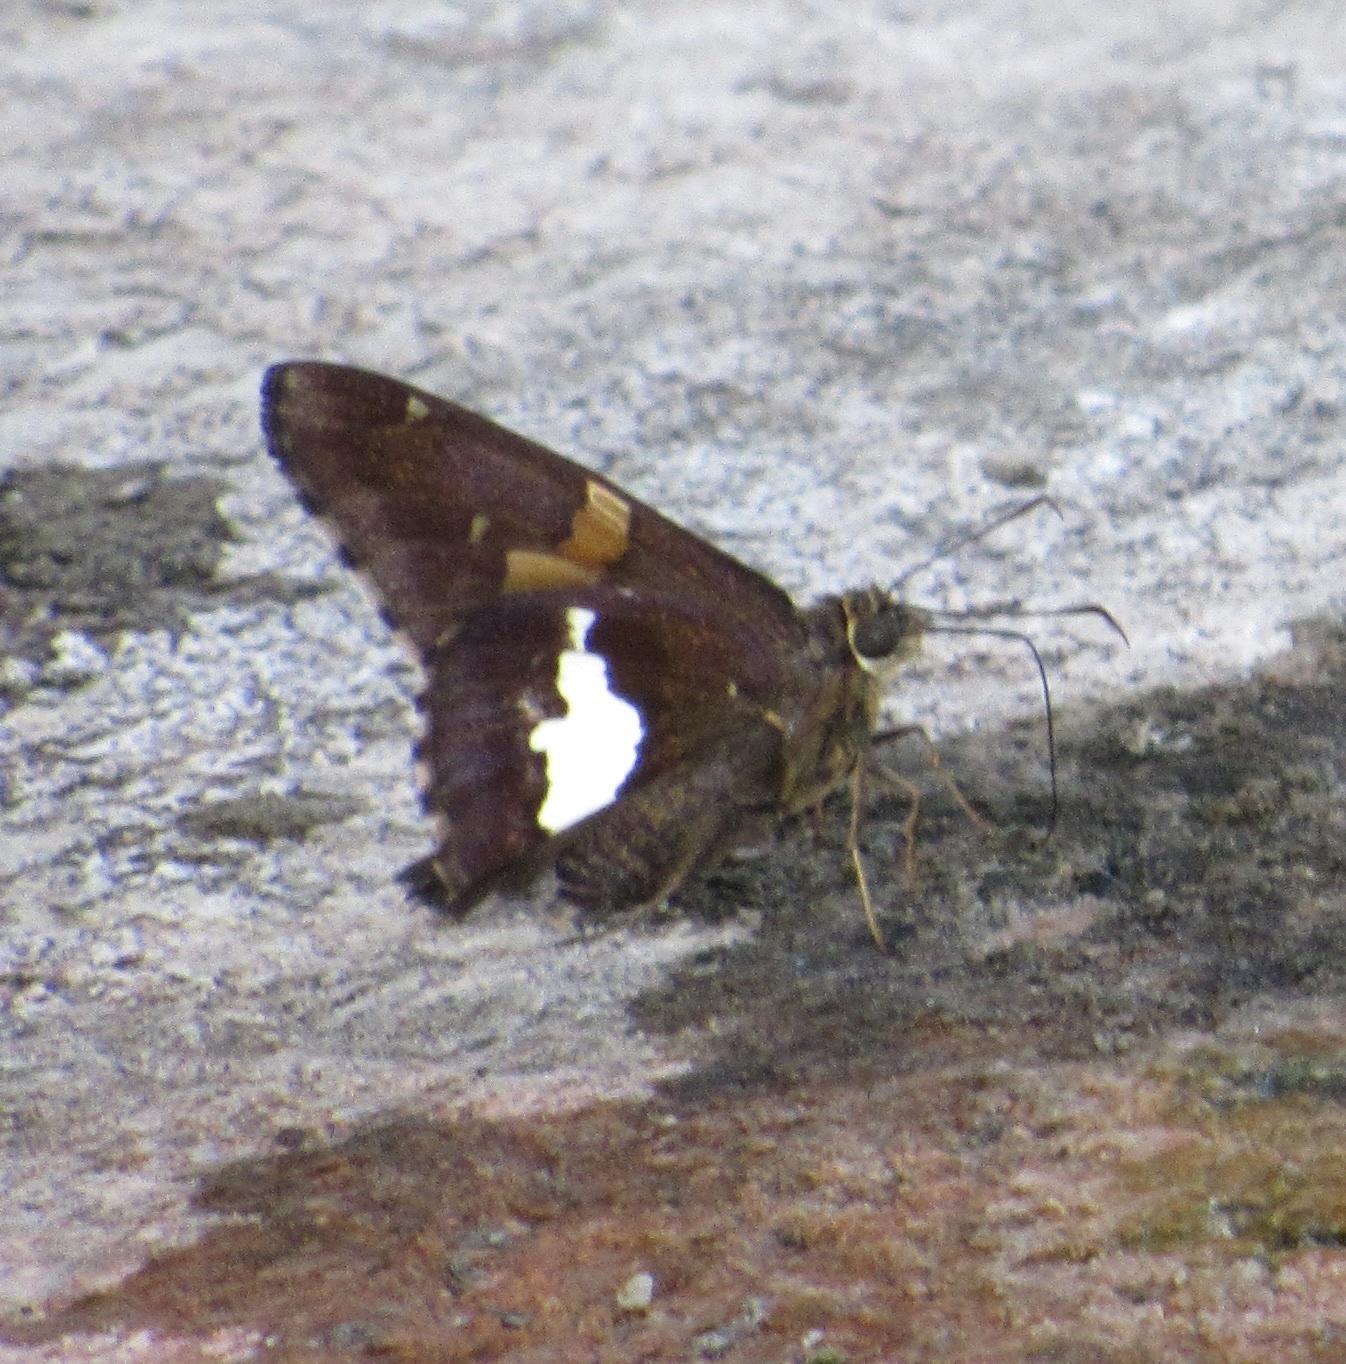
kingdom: Animalia
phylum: Arthropoda
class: Insecta
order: Lepidoptera
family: Hesperiidae
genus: Epargyreus
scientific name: Epargyreus clarus
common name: Silver-spotted skipper
